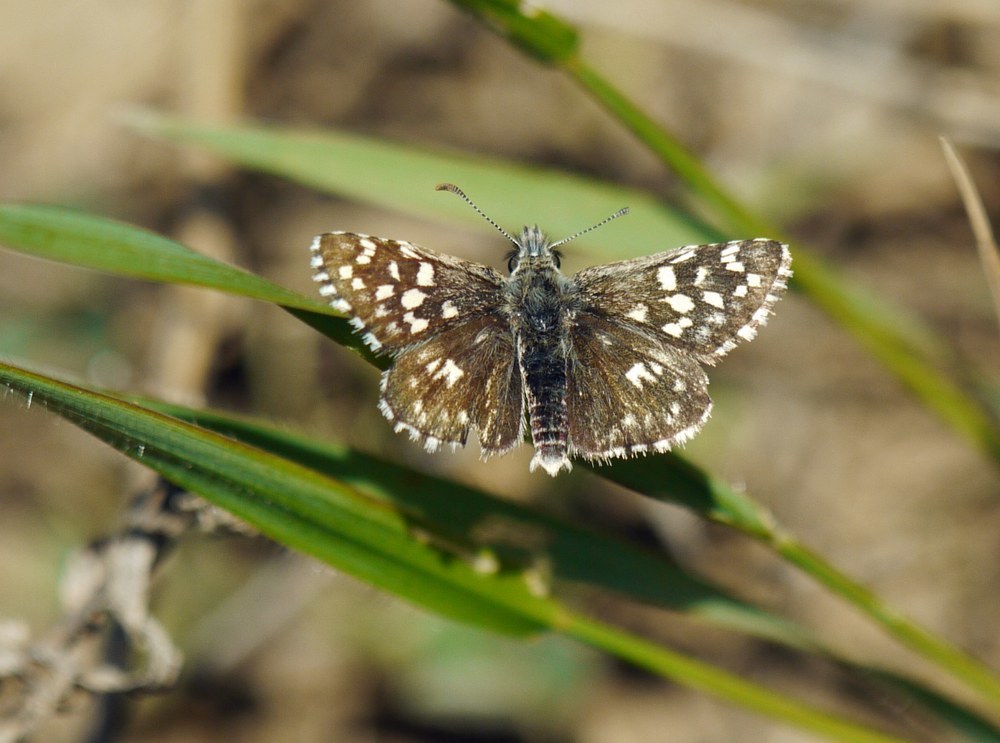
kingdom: Animalia
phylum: Arthropoda
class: Insecta
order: Lepidoptera
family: Hesperiidae
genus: Pyrgus
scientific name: Pyrgus malvae
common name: Grizzled skipper
